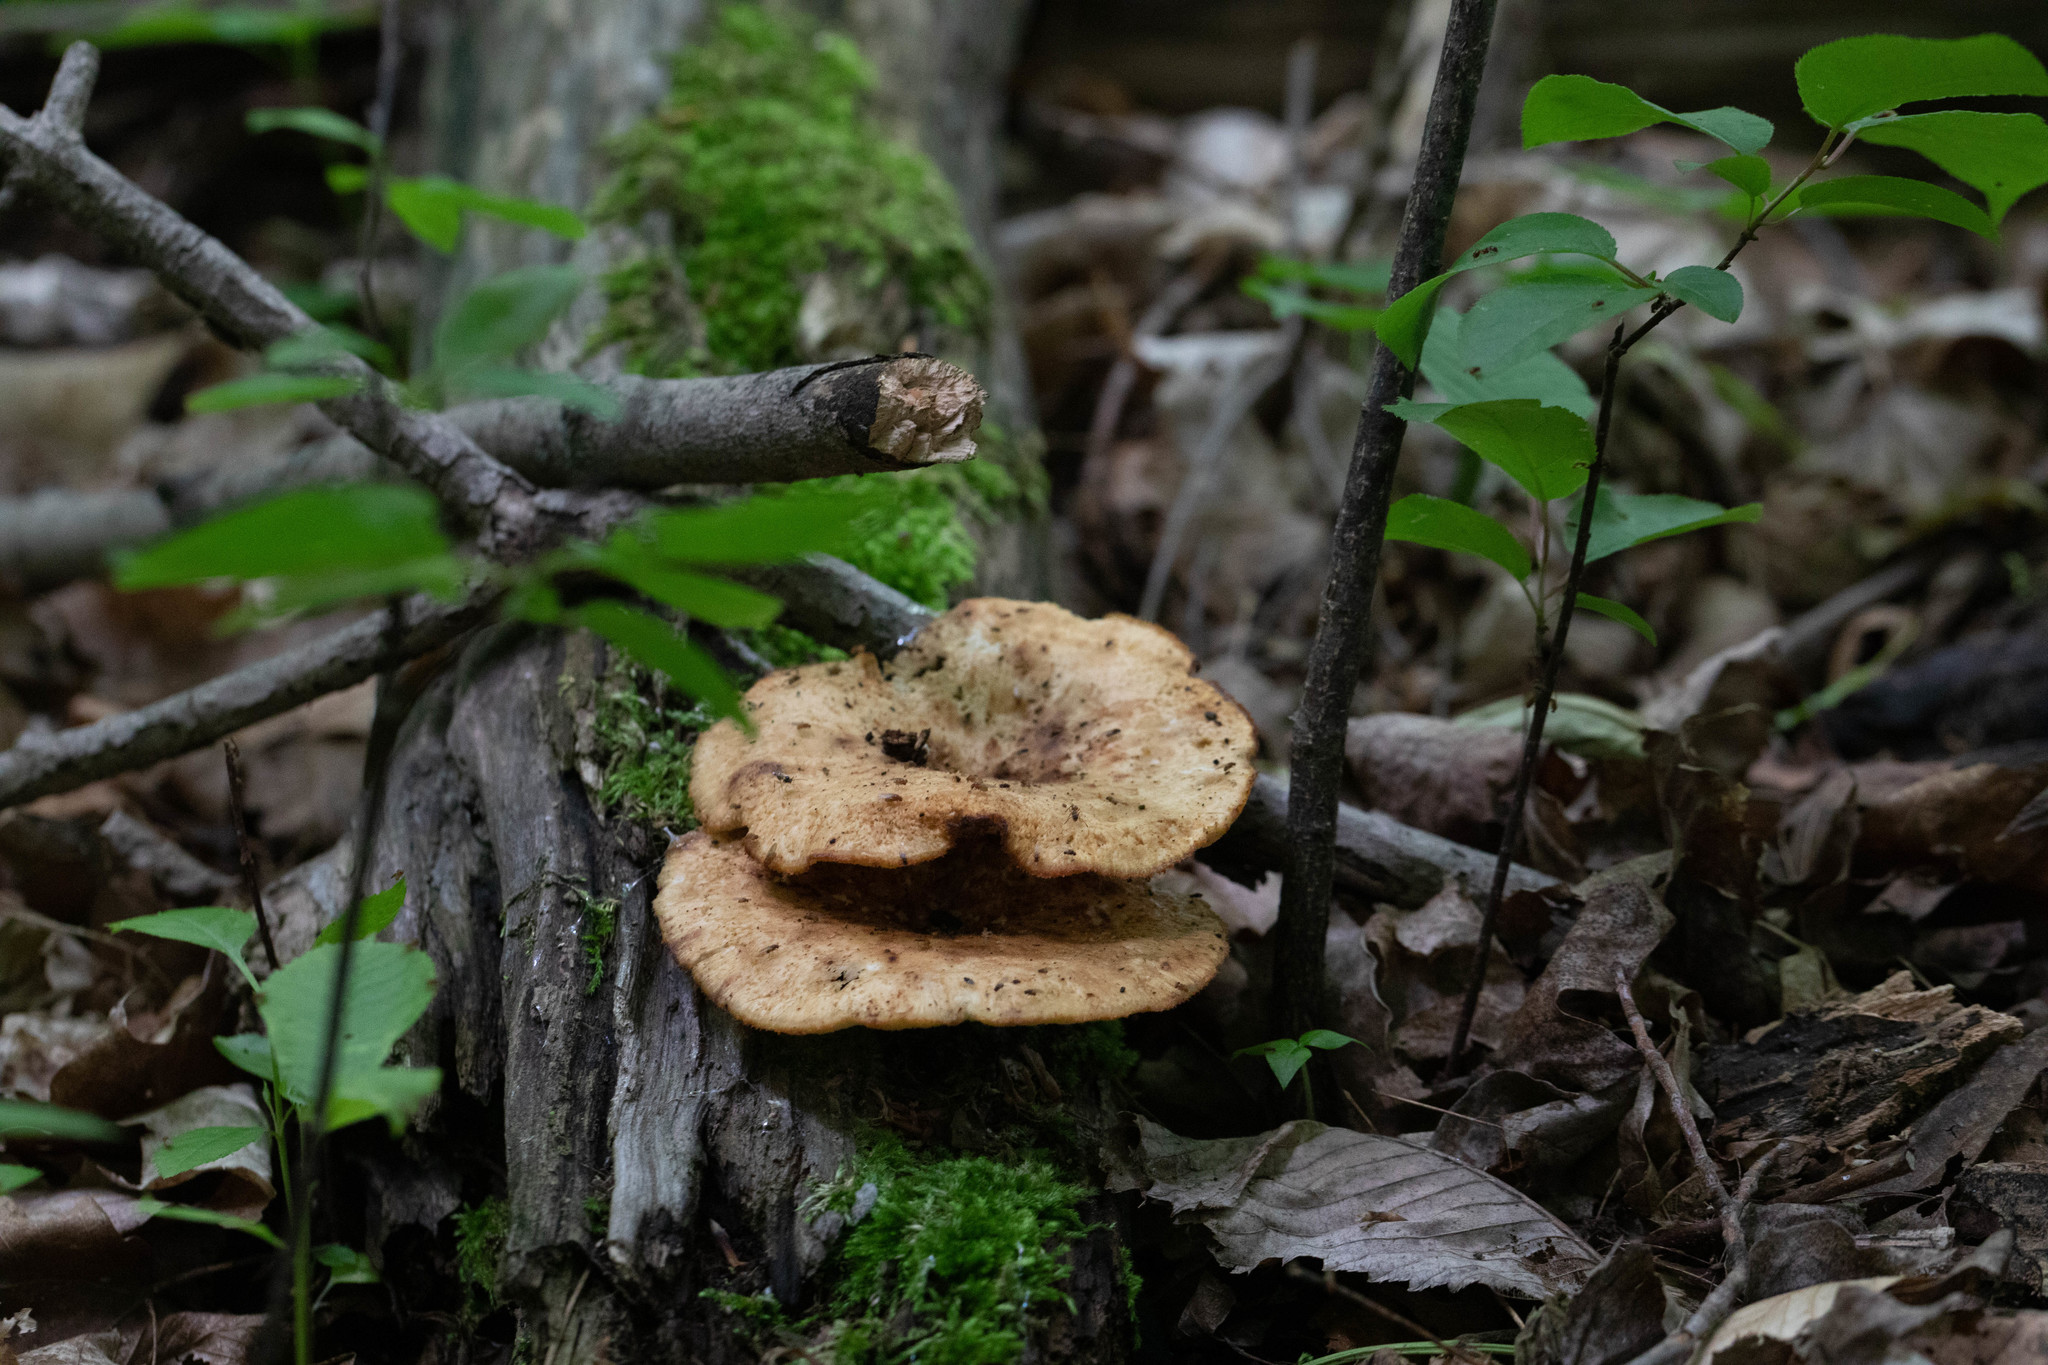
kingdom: Fungi
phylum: Basidiomycota
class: Agaricomycetes
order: Polyporales
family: Polyporaceae
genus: Cerioporus
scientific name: Cerioporus squamosus
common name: Dryad's saddle
